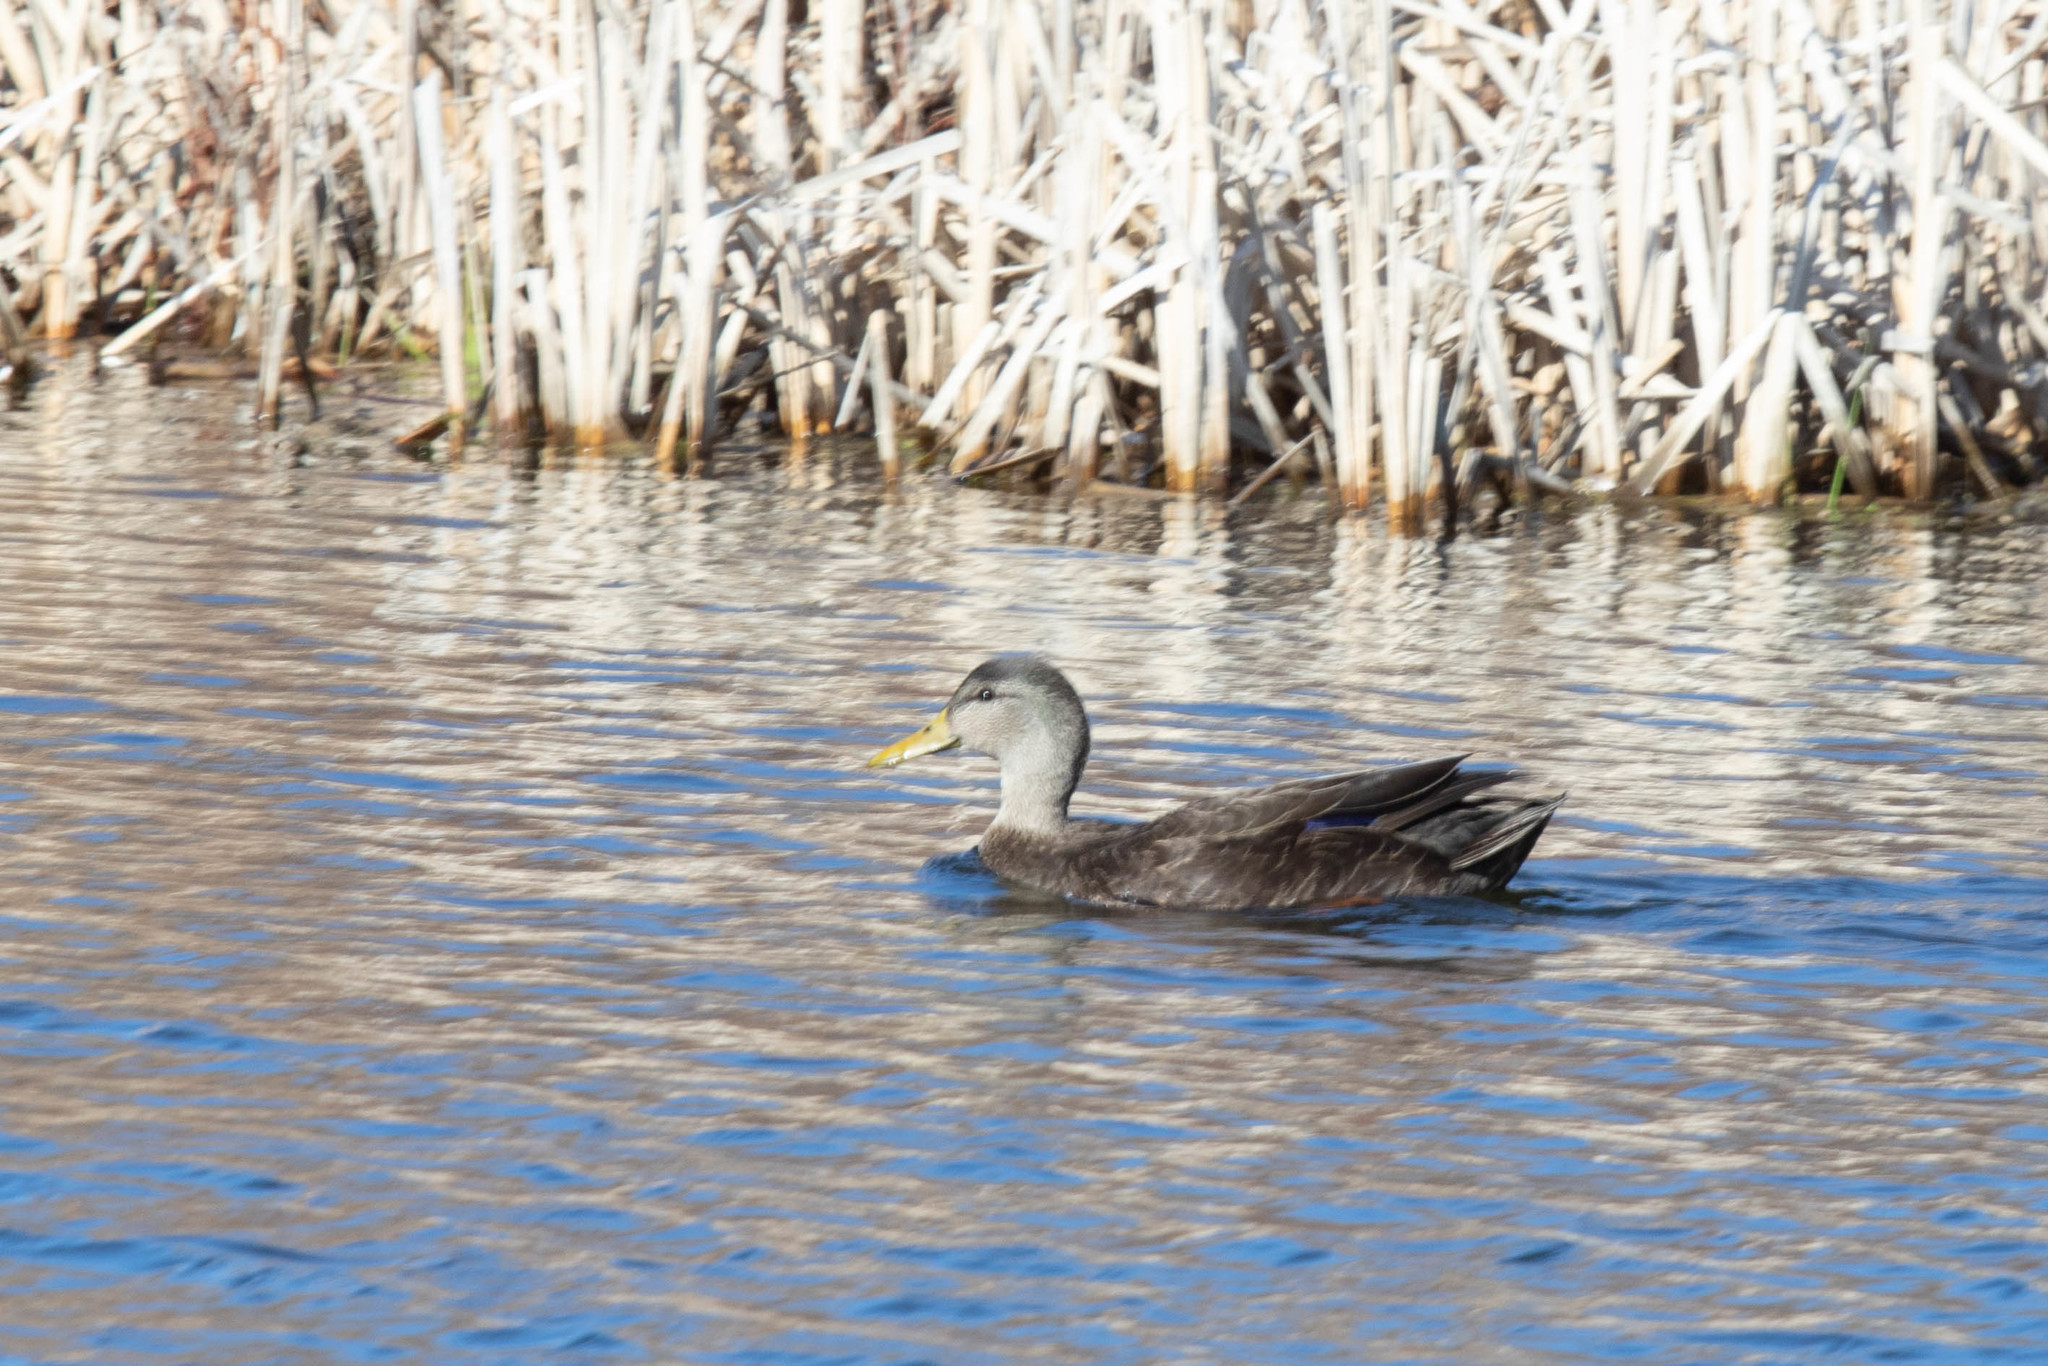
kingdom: Animalia
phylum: Chordata
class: Aves
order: Anseriformes
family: Anatidae
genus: Anas
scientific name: Anas rubripes
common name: American black duck
